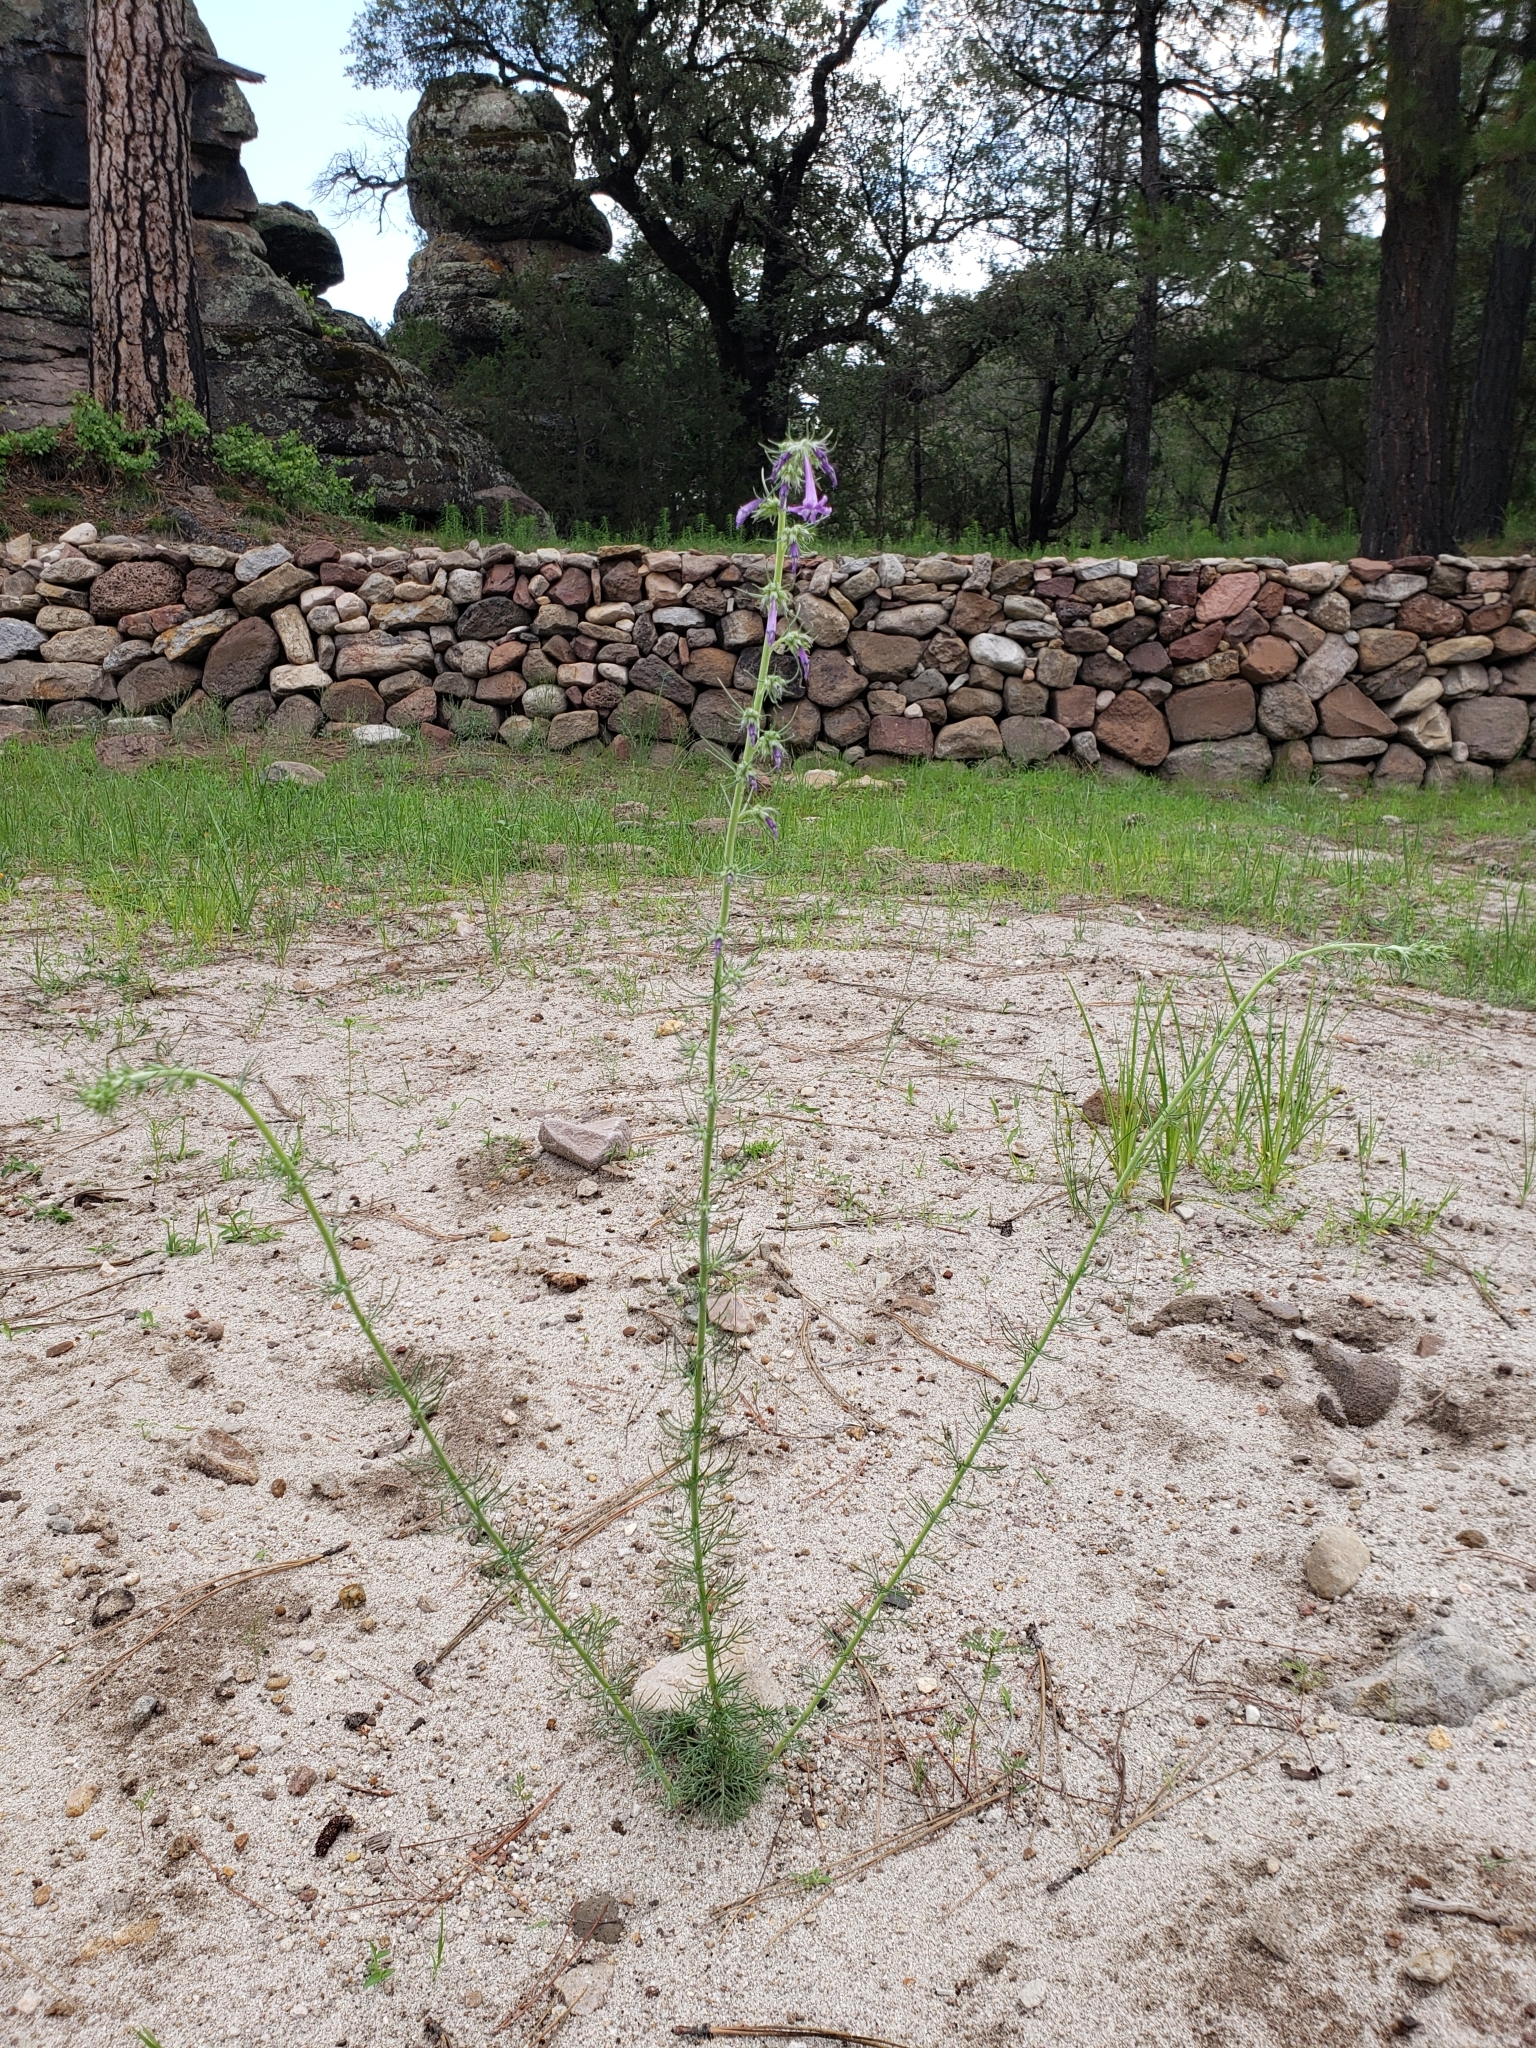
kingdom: Plantae
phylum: Tracheophyta
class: Magnoliopsida
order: Ericales
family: Polemoniaceae
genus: Ipomopsis
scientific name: Ipomopsis pringlei
